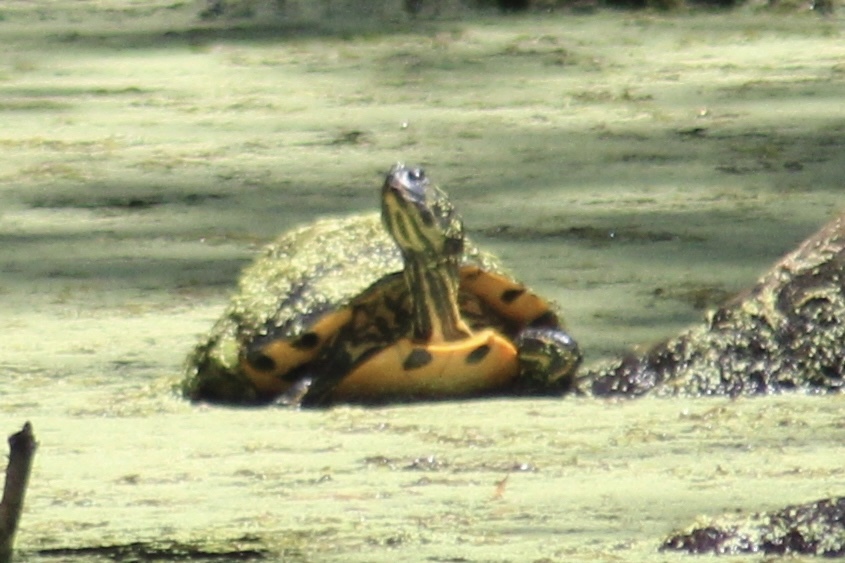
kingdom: Animalia
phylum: Chordata
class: Testudines
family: Emydidae
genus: Trachemys
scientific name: Trachemys scripta
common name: Slider
